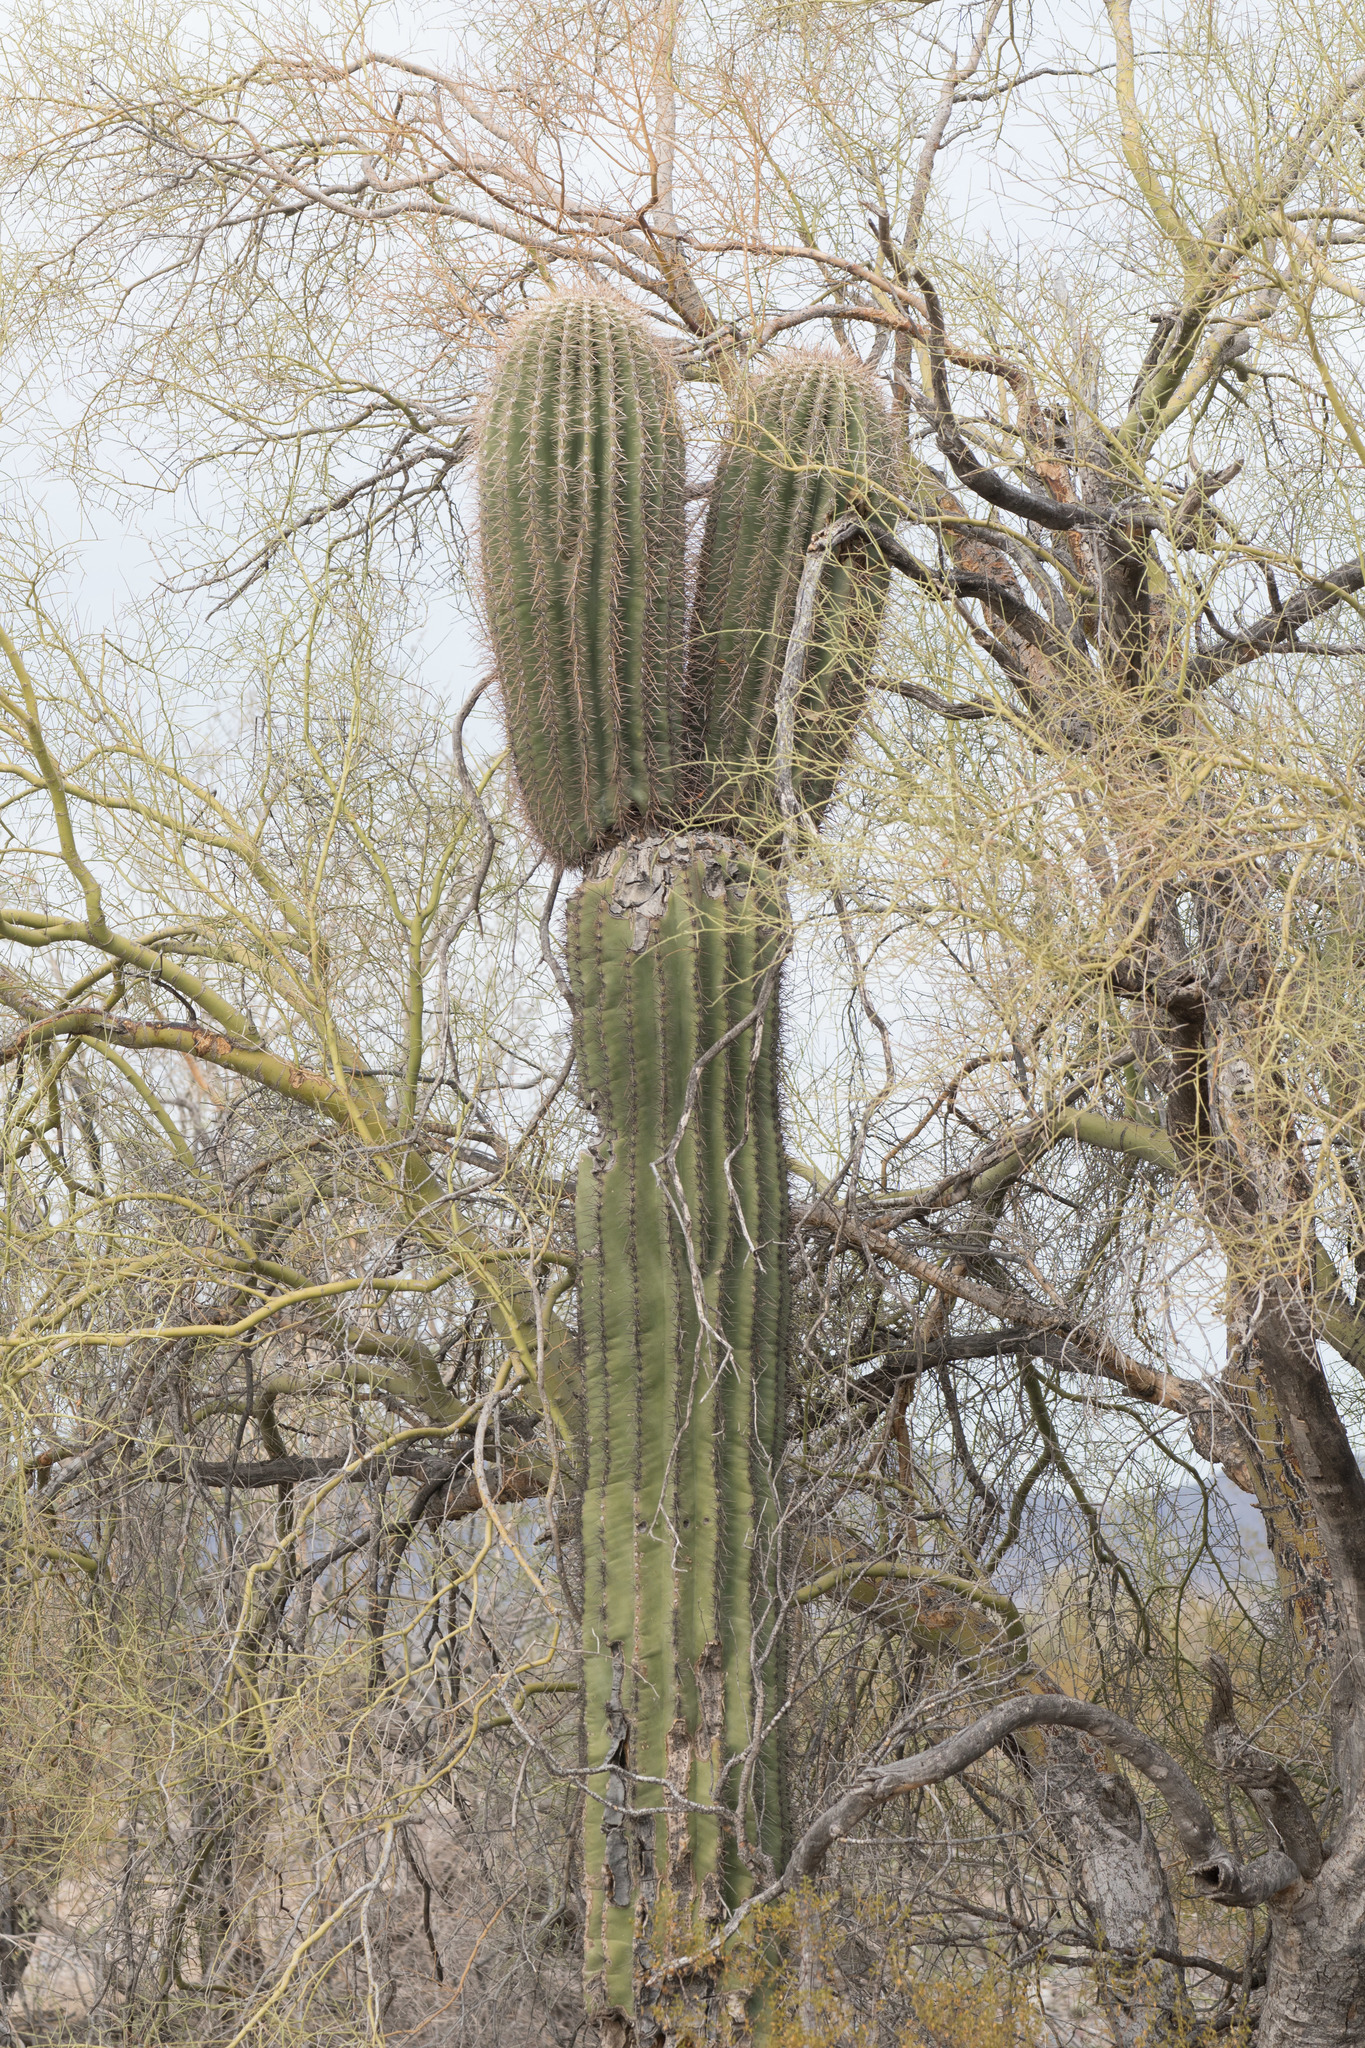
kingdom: Plantae
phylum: Tracheophyta
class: Magnoliopsida
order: Caryophyllales
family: Cactaceae
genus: Carnegiea
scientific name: Carnegiea gigantea
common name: Saguaro
